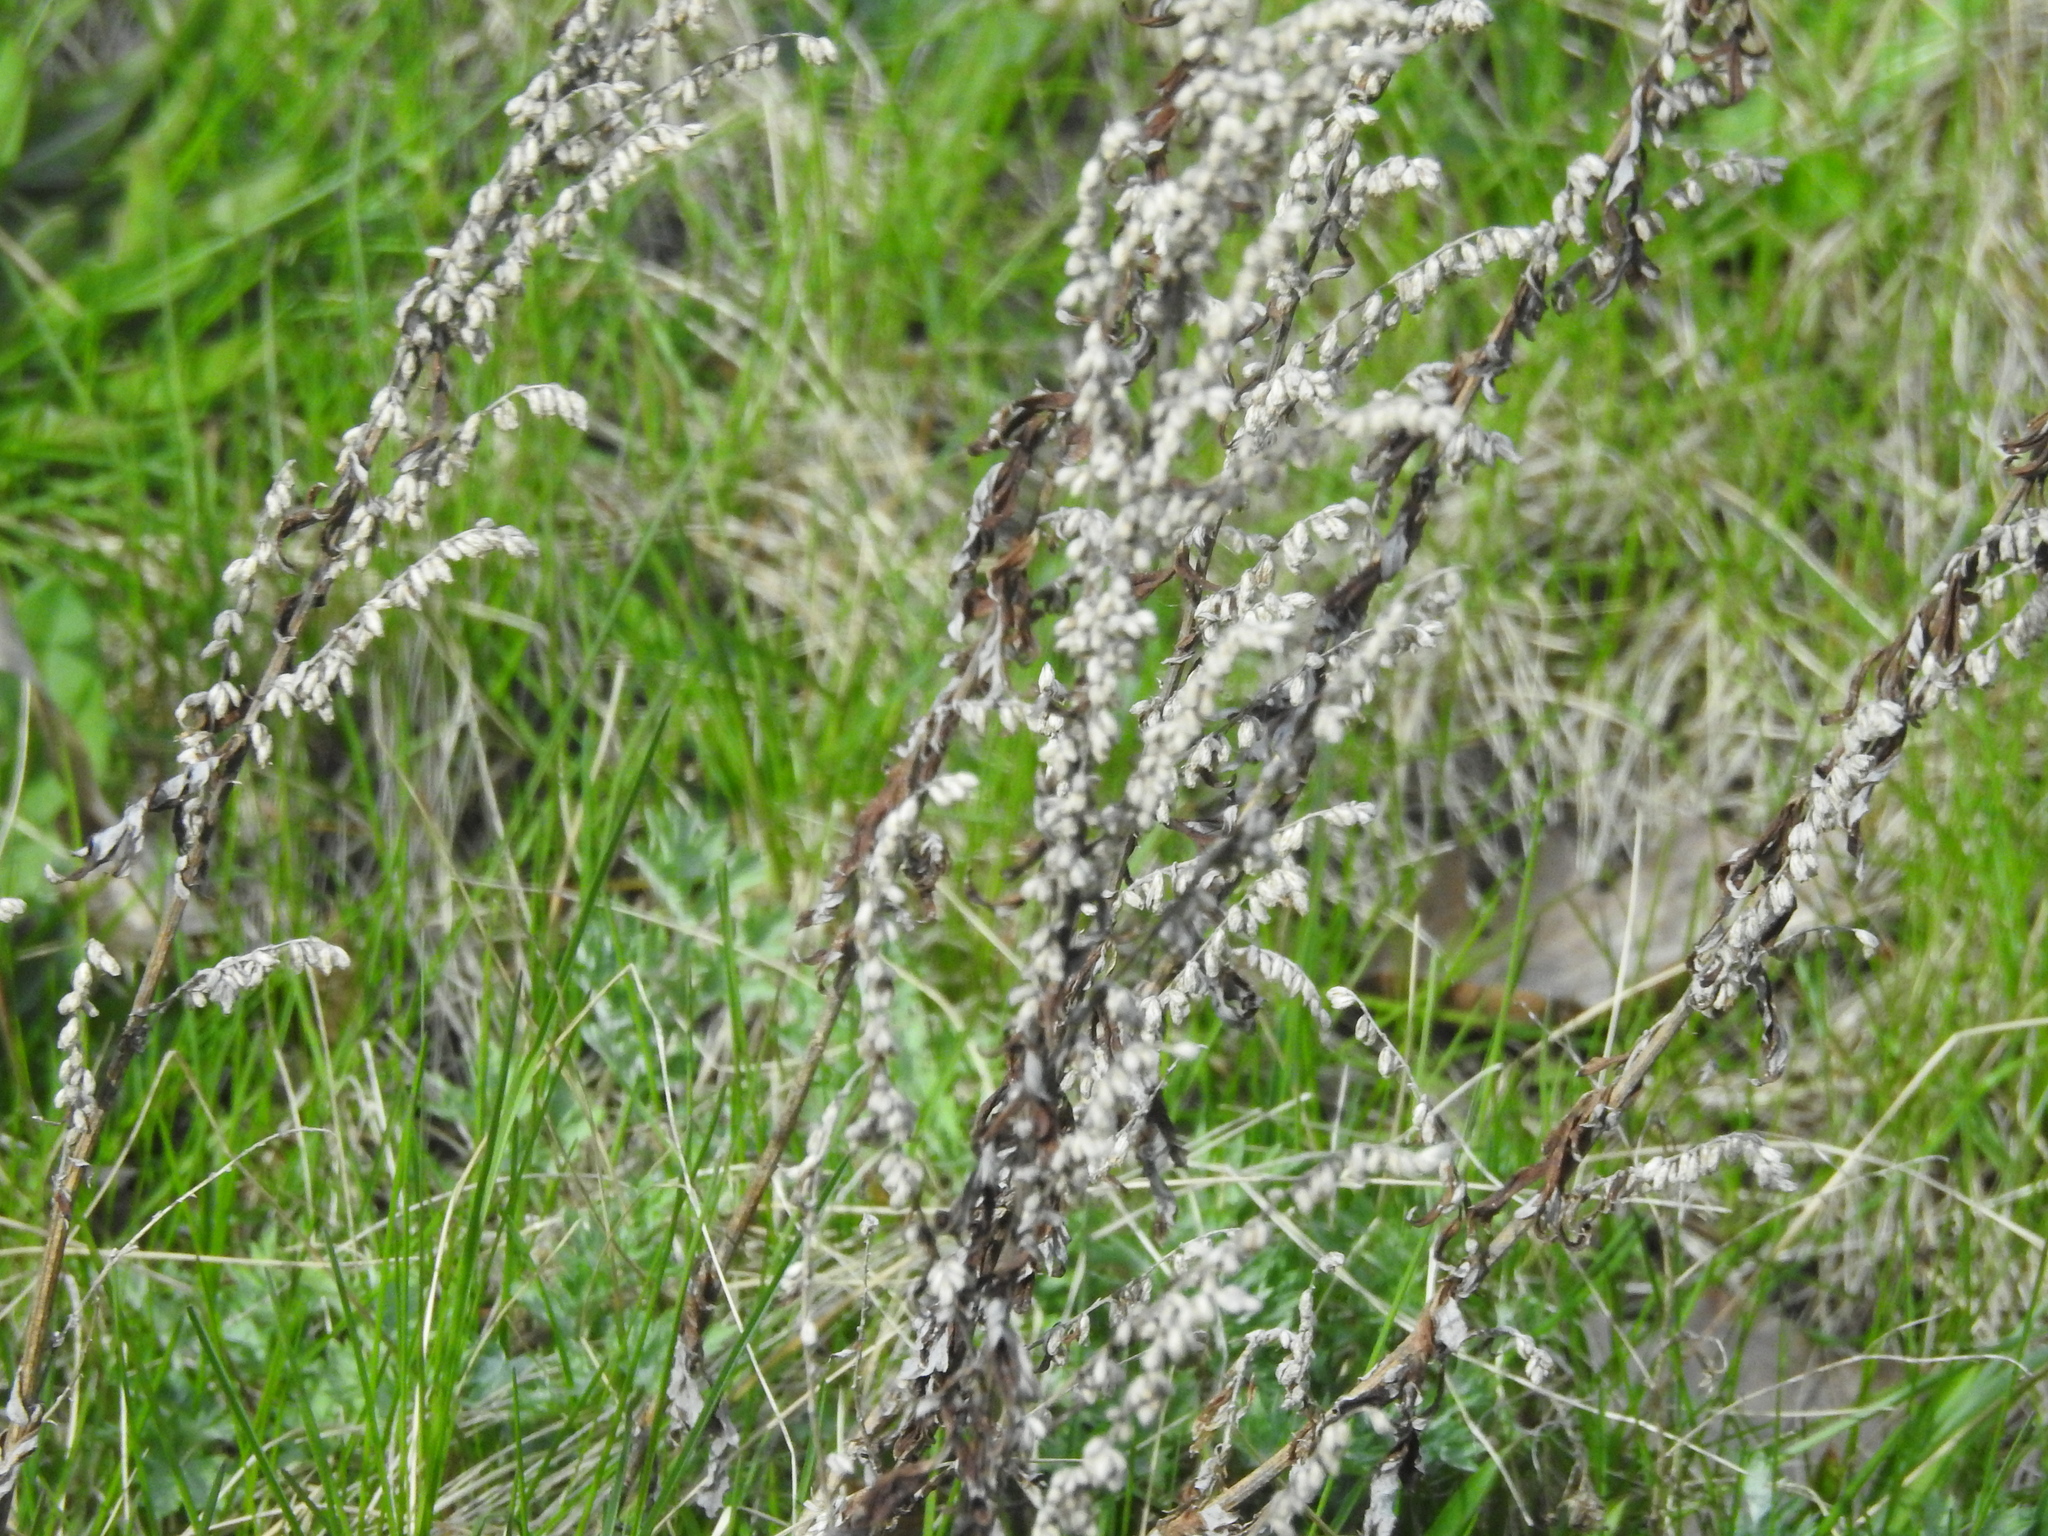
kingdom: Plantae
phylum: Tracheophyta
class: Magnoliopsida
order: Asterales
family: Asteraceae
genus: Artemisia
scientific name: Artemisia vulgaris
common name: Mugwort
